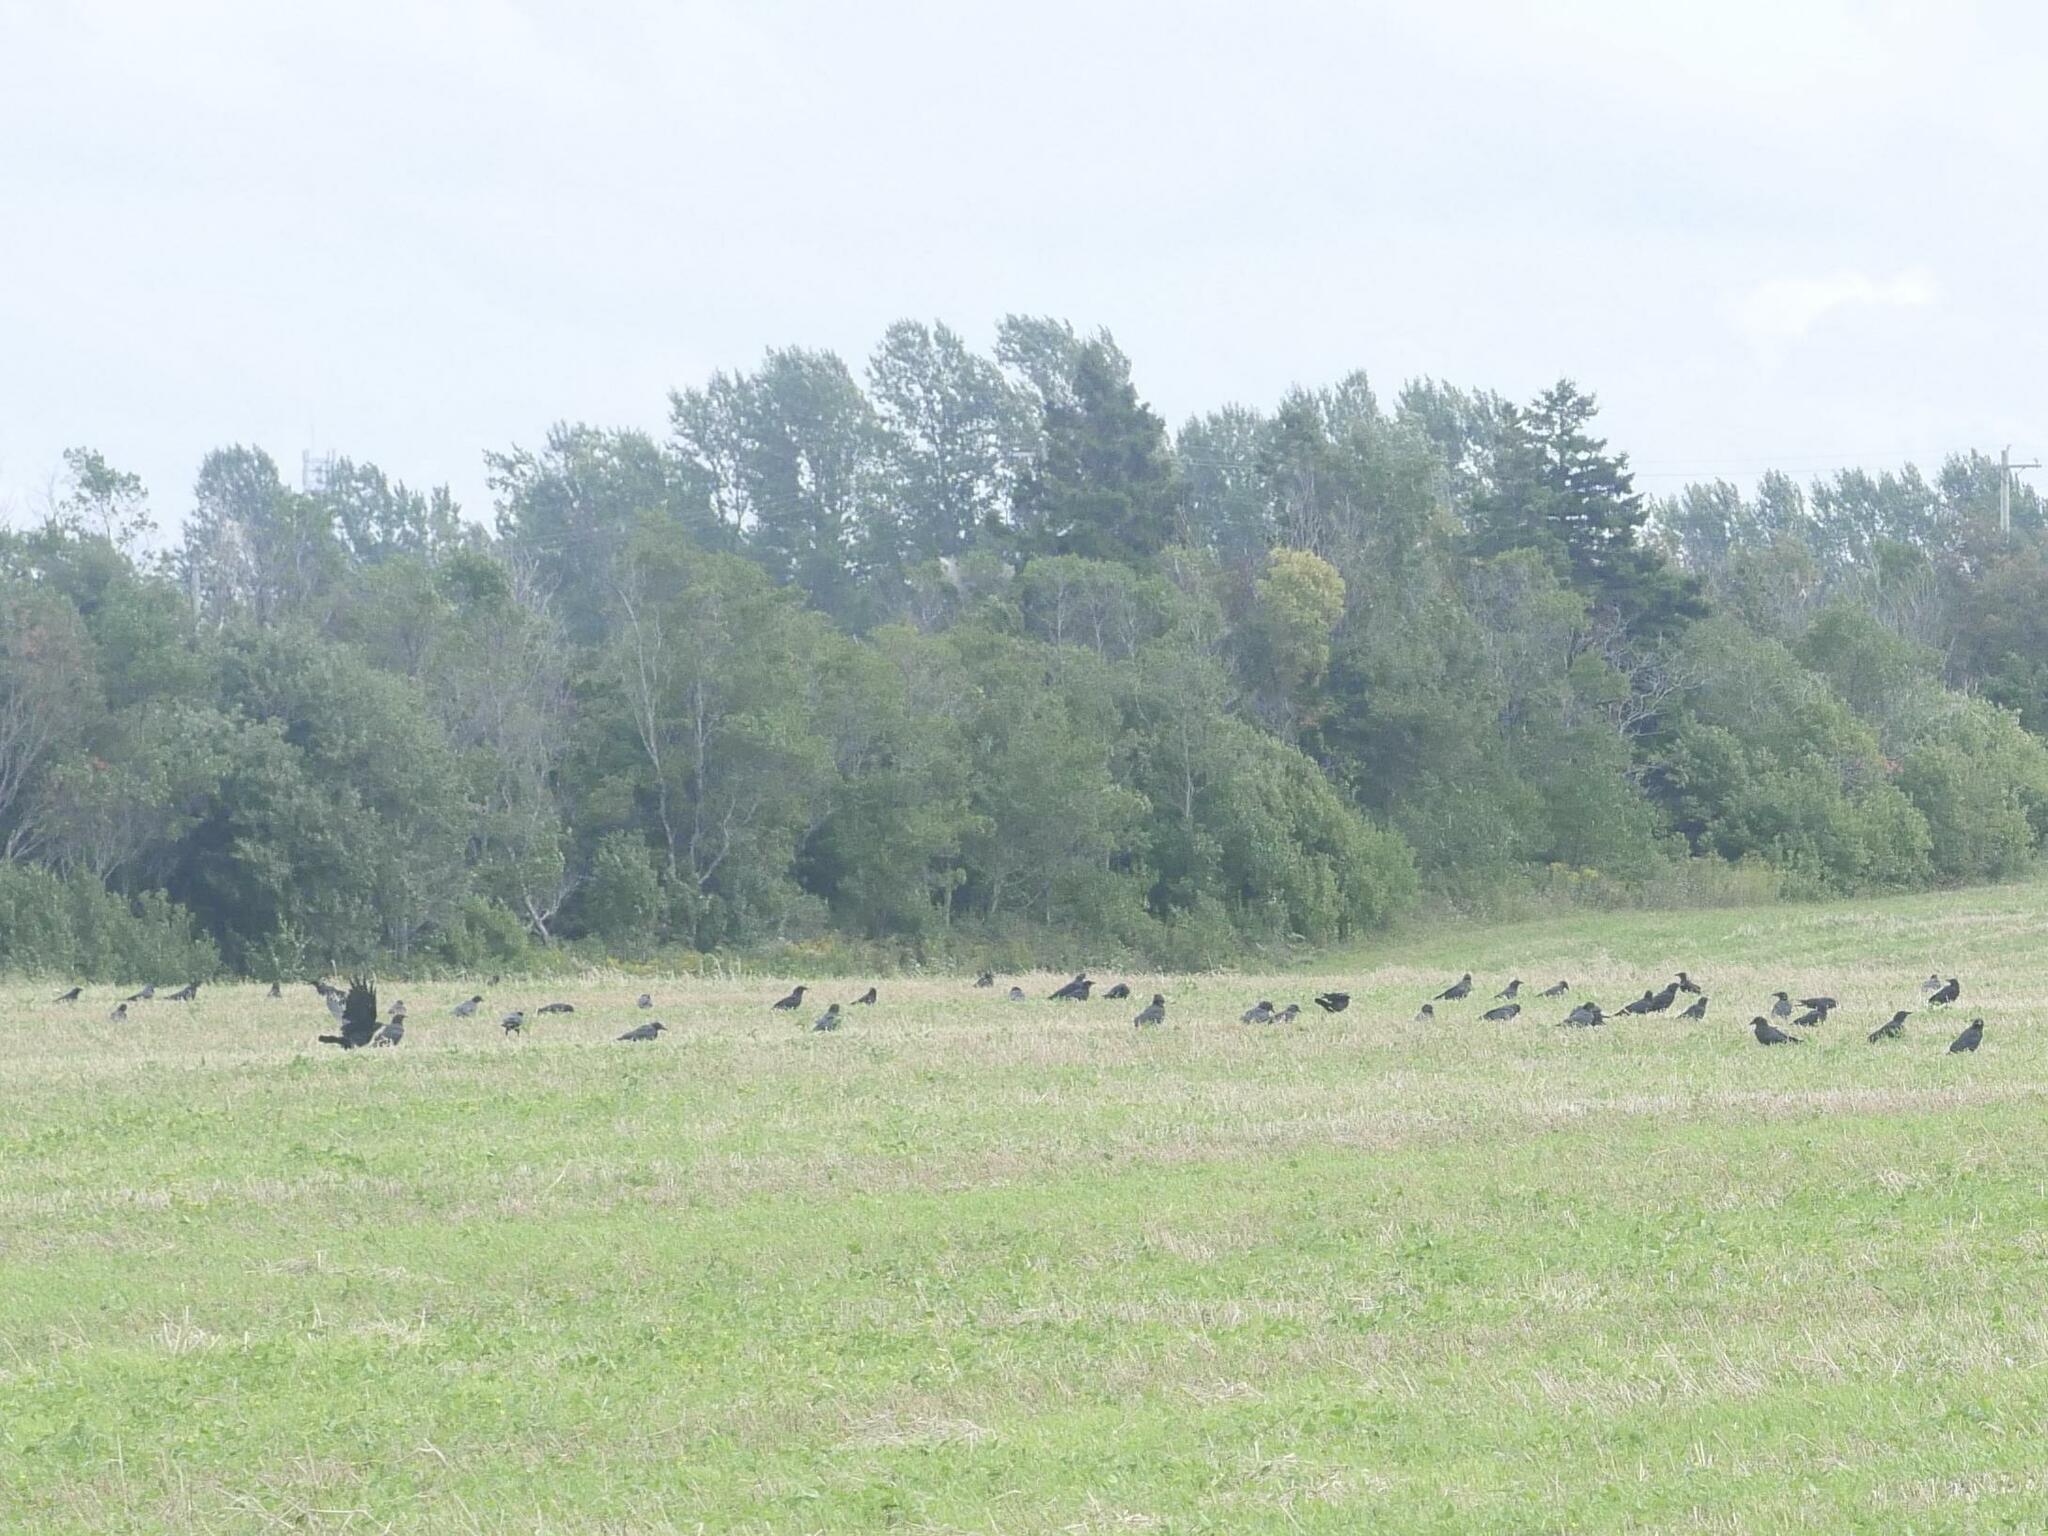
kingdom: Animalia
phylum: Chordata
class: Aves
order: Passeriformes
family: Corvidae
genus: Corvus
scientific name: Corvus brachyrhynchos
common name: American crow
